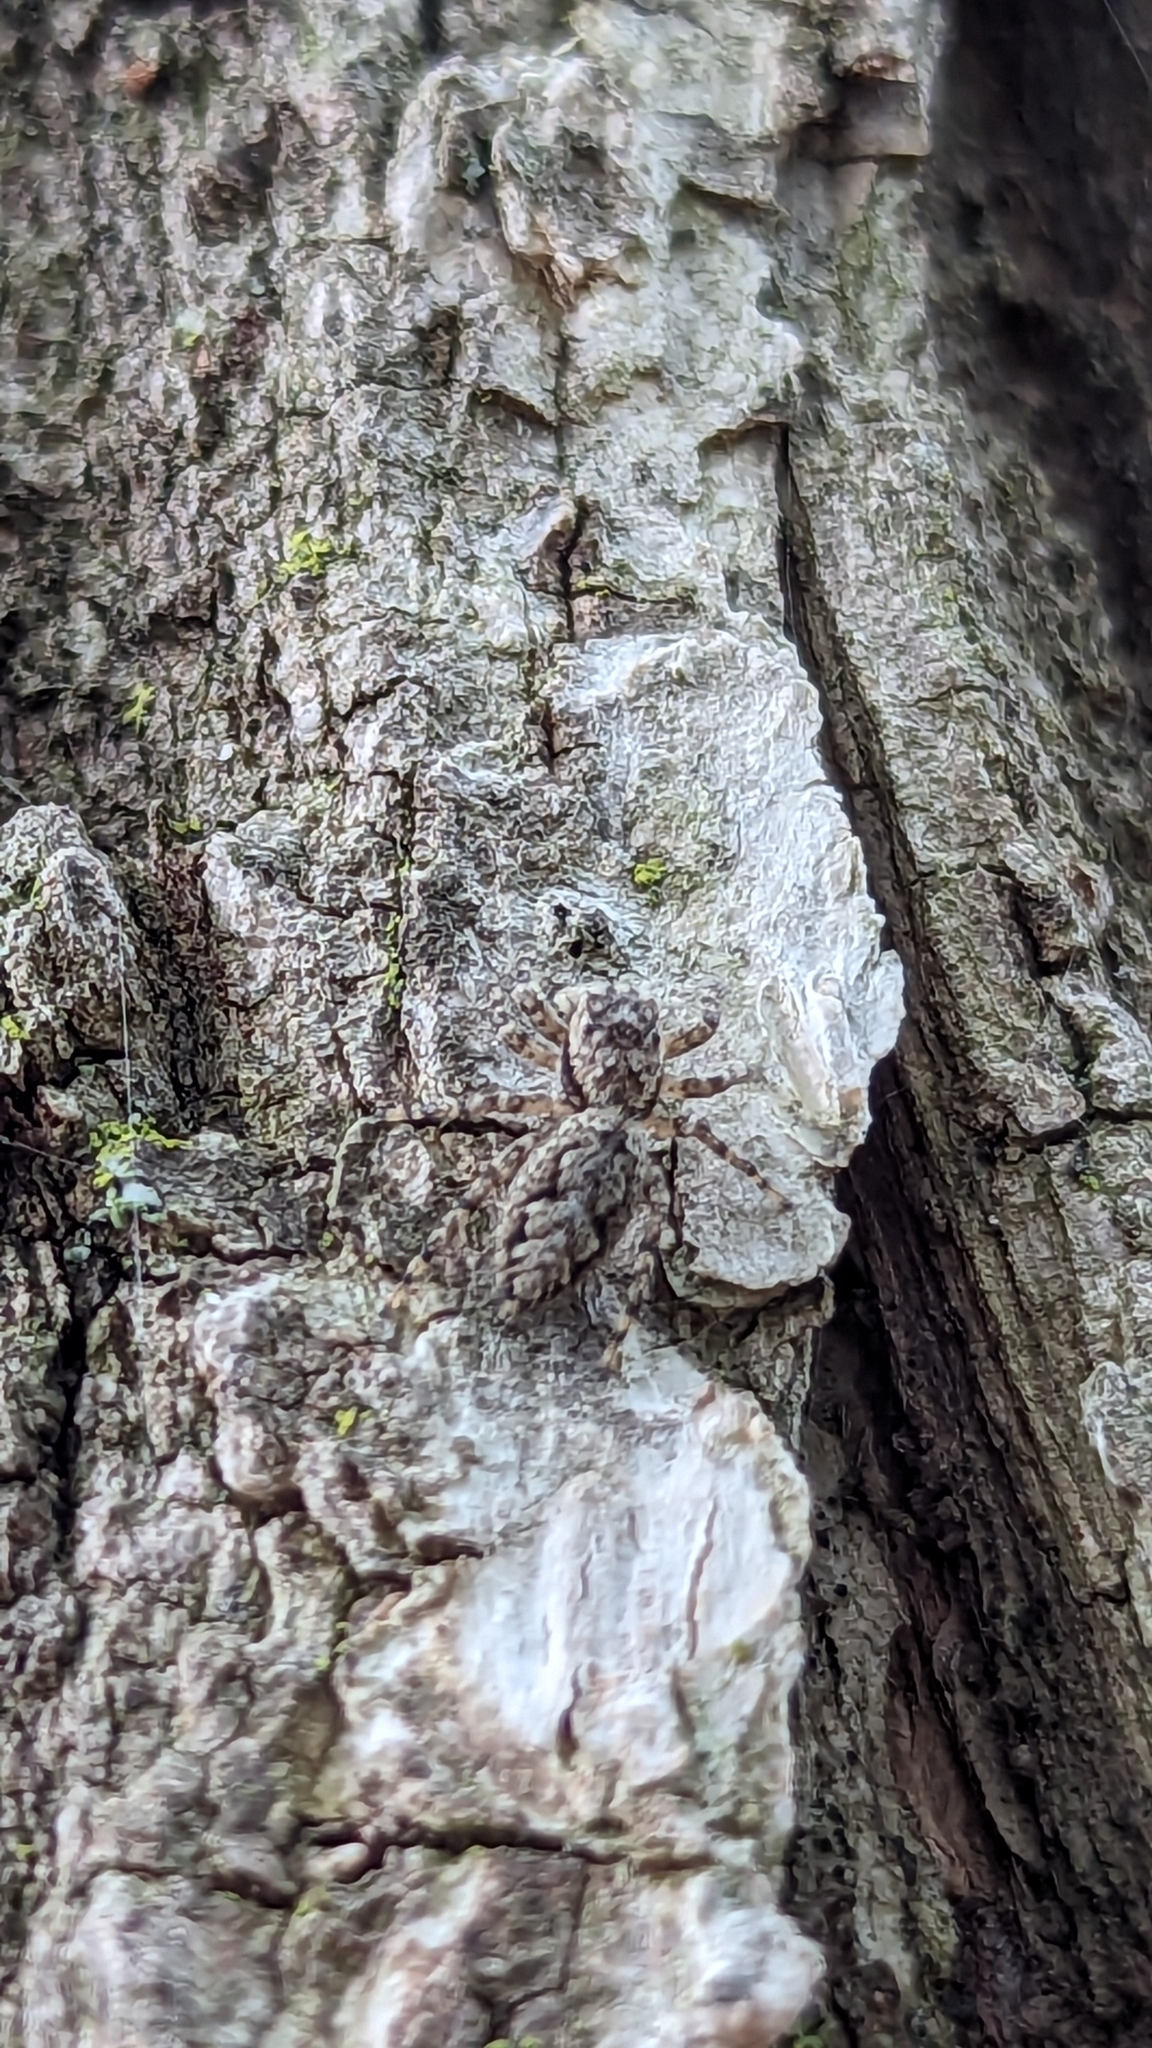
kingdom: Animalia
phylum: Arthropoda
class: Arachnida
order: Araneae
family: Salticidae
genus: Platycryptus
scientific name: Platycryptus undatus
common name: Tan jumping spider
